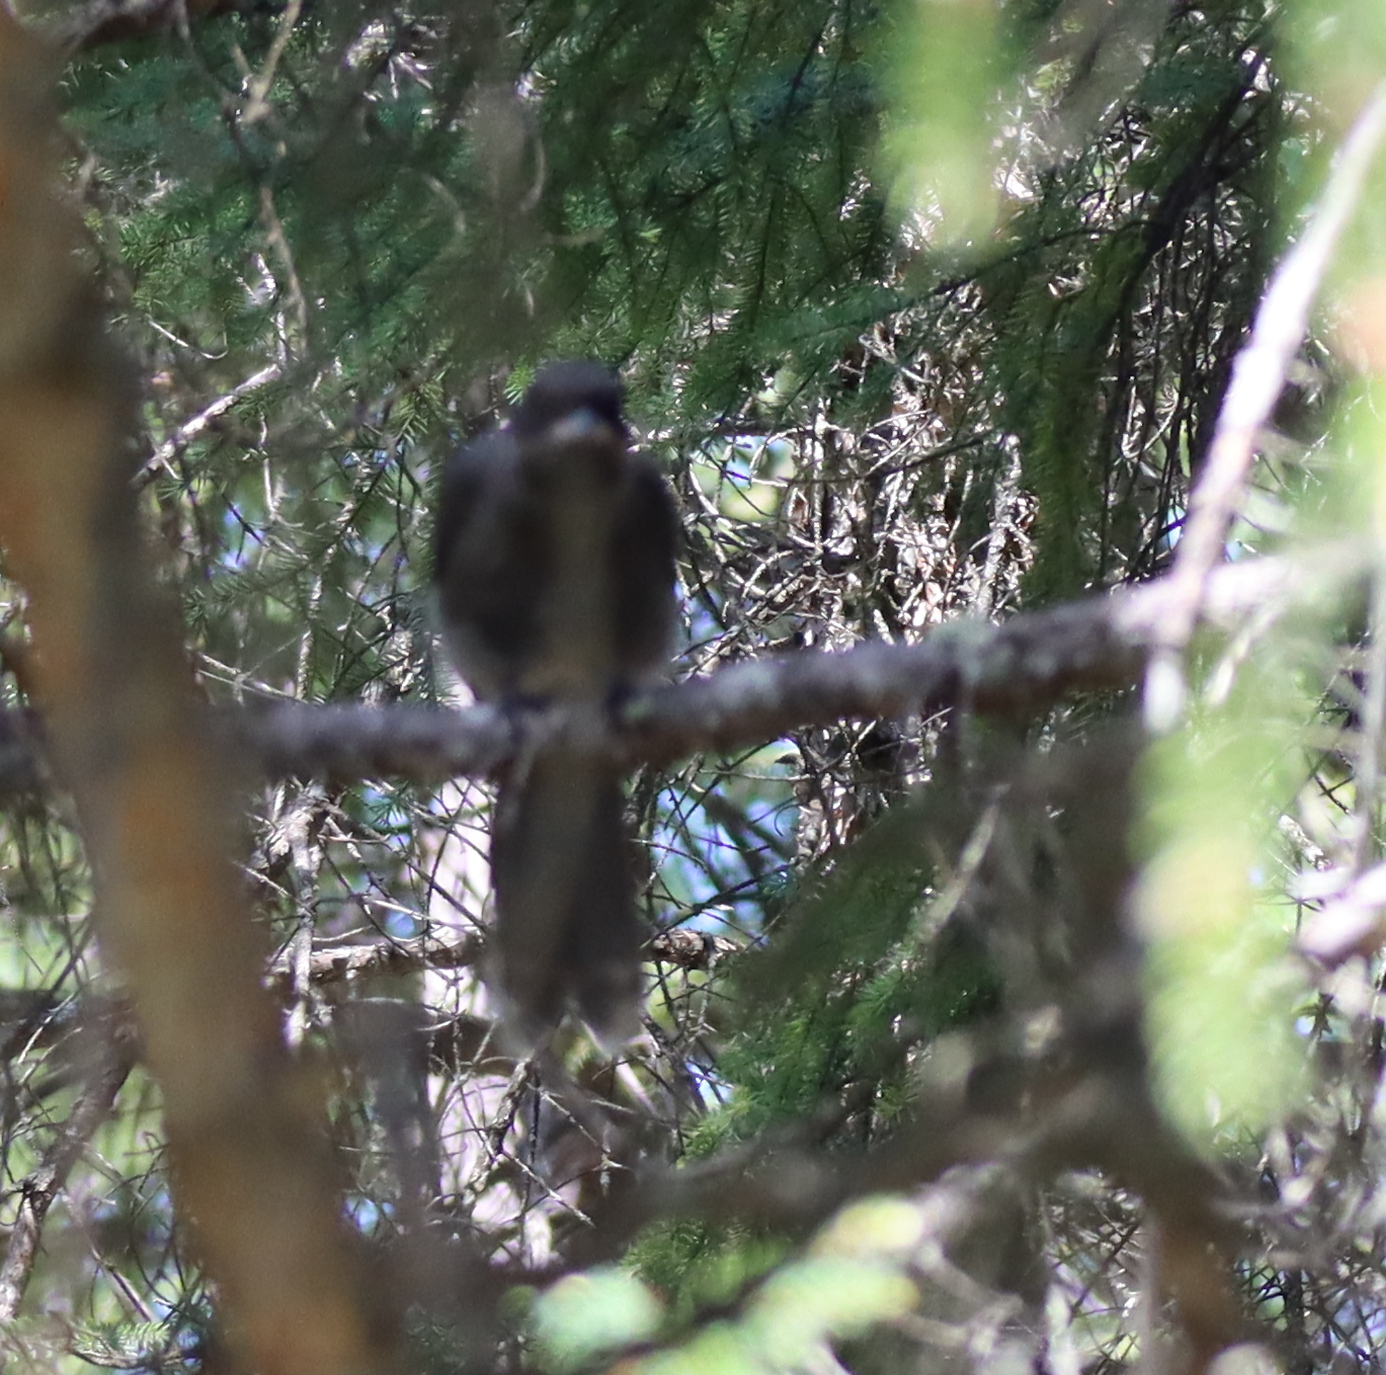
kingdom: Animalia
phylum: Chordata
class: Aves
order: Passeriformes
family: Corvidae
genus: Perisoreus
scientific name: Perisoreus canadensis
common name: Gray jay
